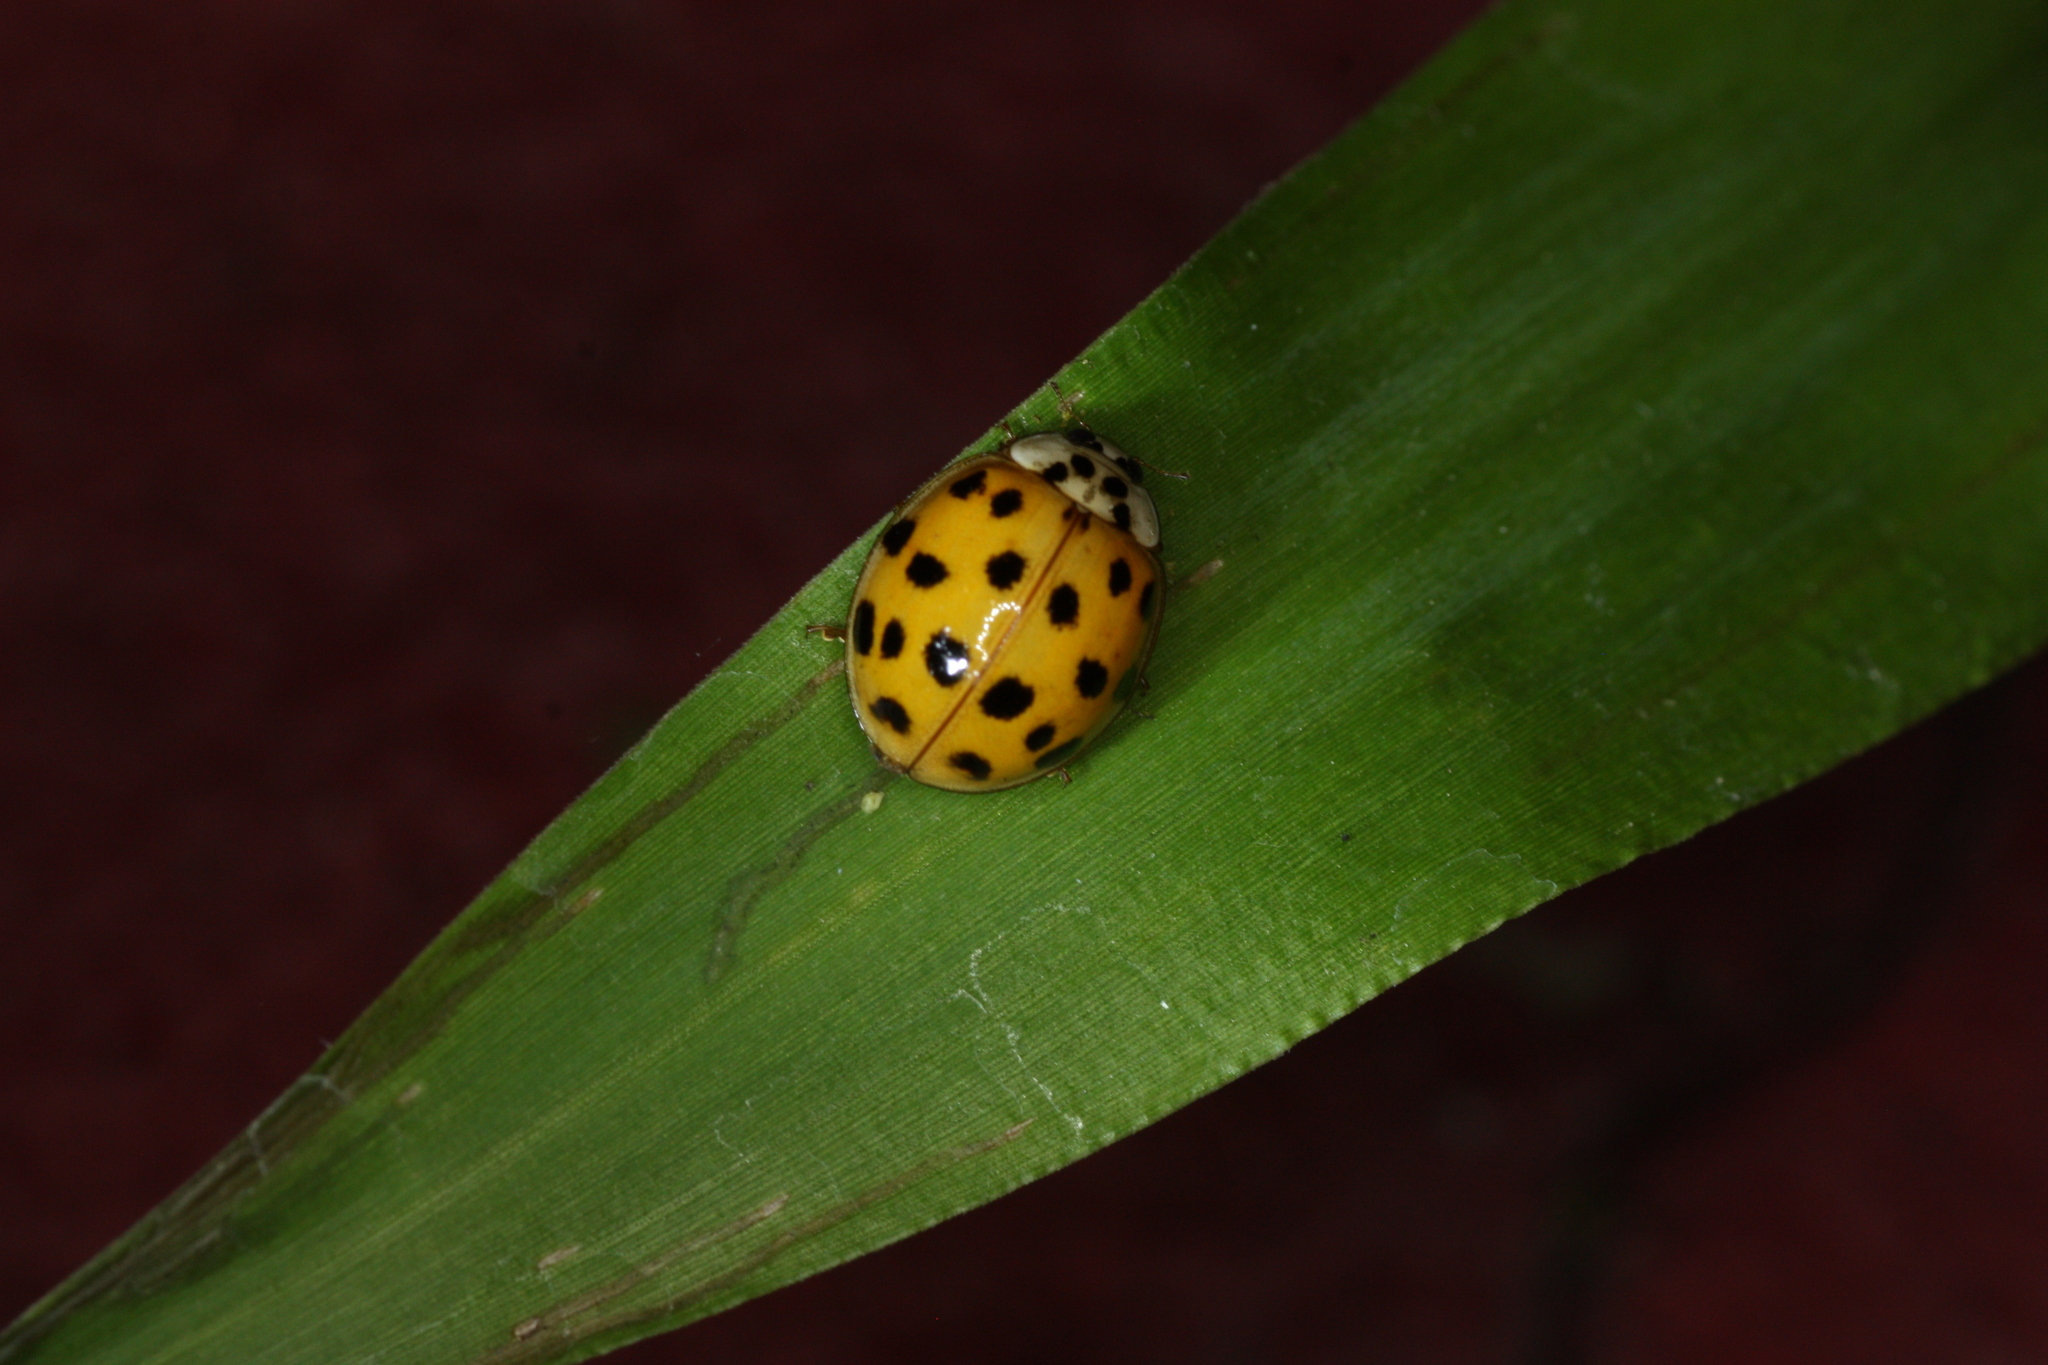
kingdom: Animalia
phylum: Arthropoda
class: Insecta
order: Coleoptera
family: Coccinellidae
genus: Harmonia
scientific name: Harmonia axyridis
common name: Harlequin ladybird
